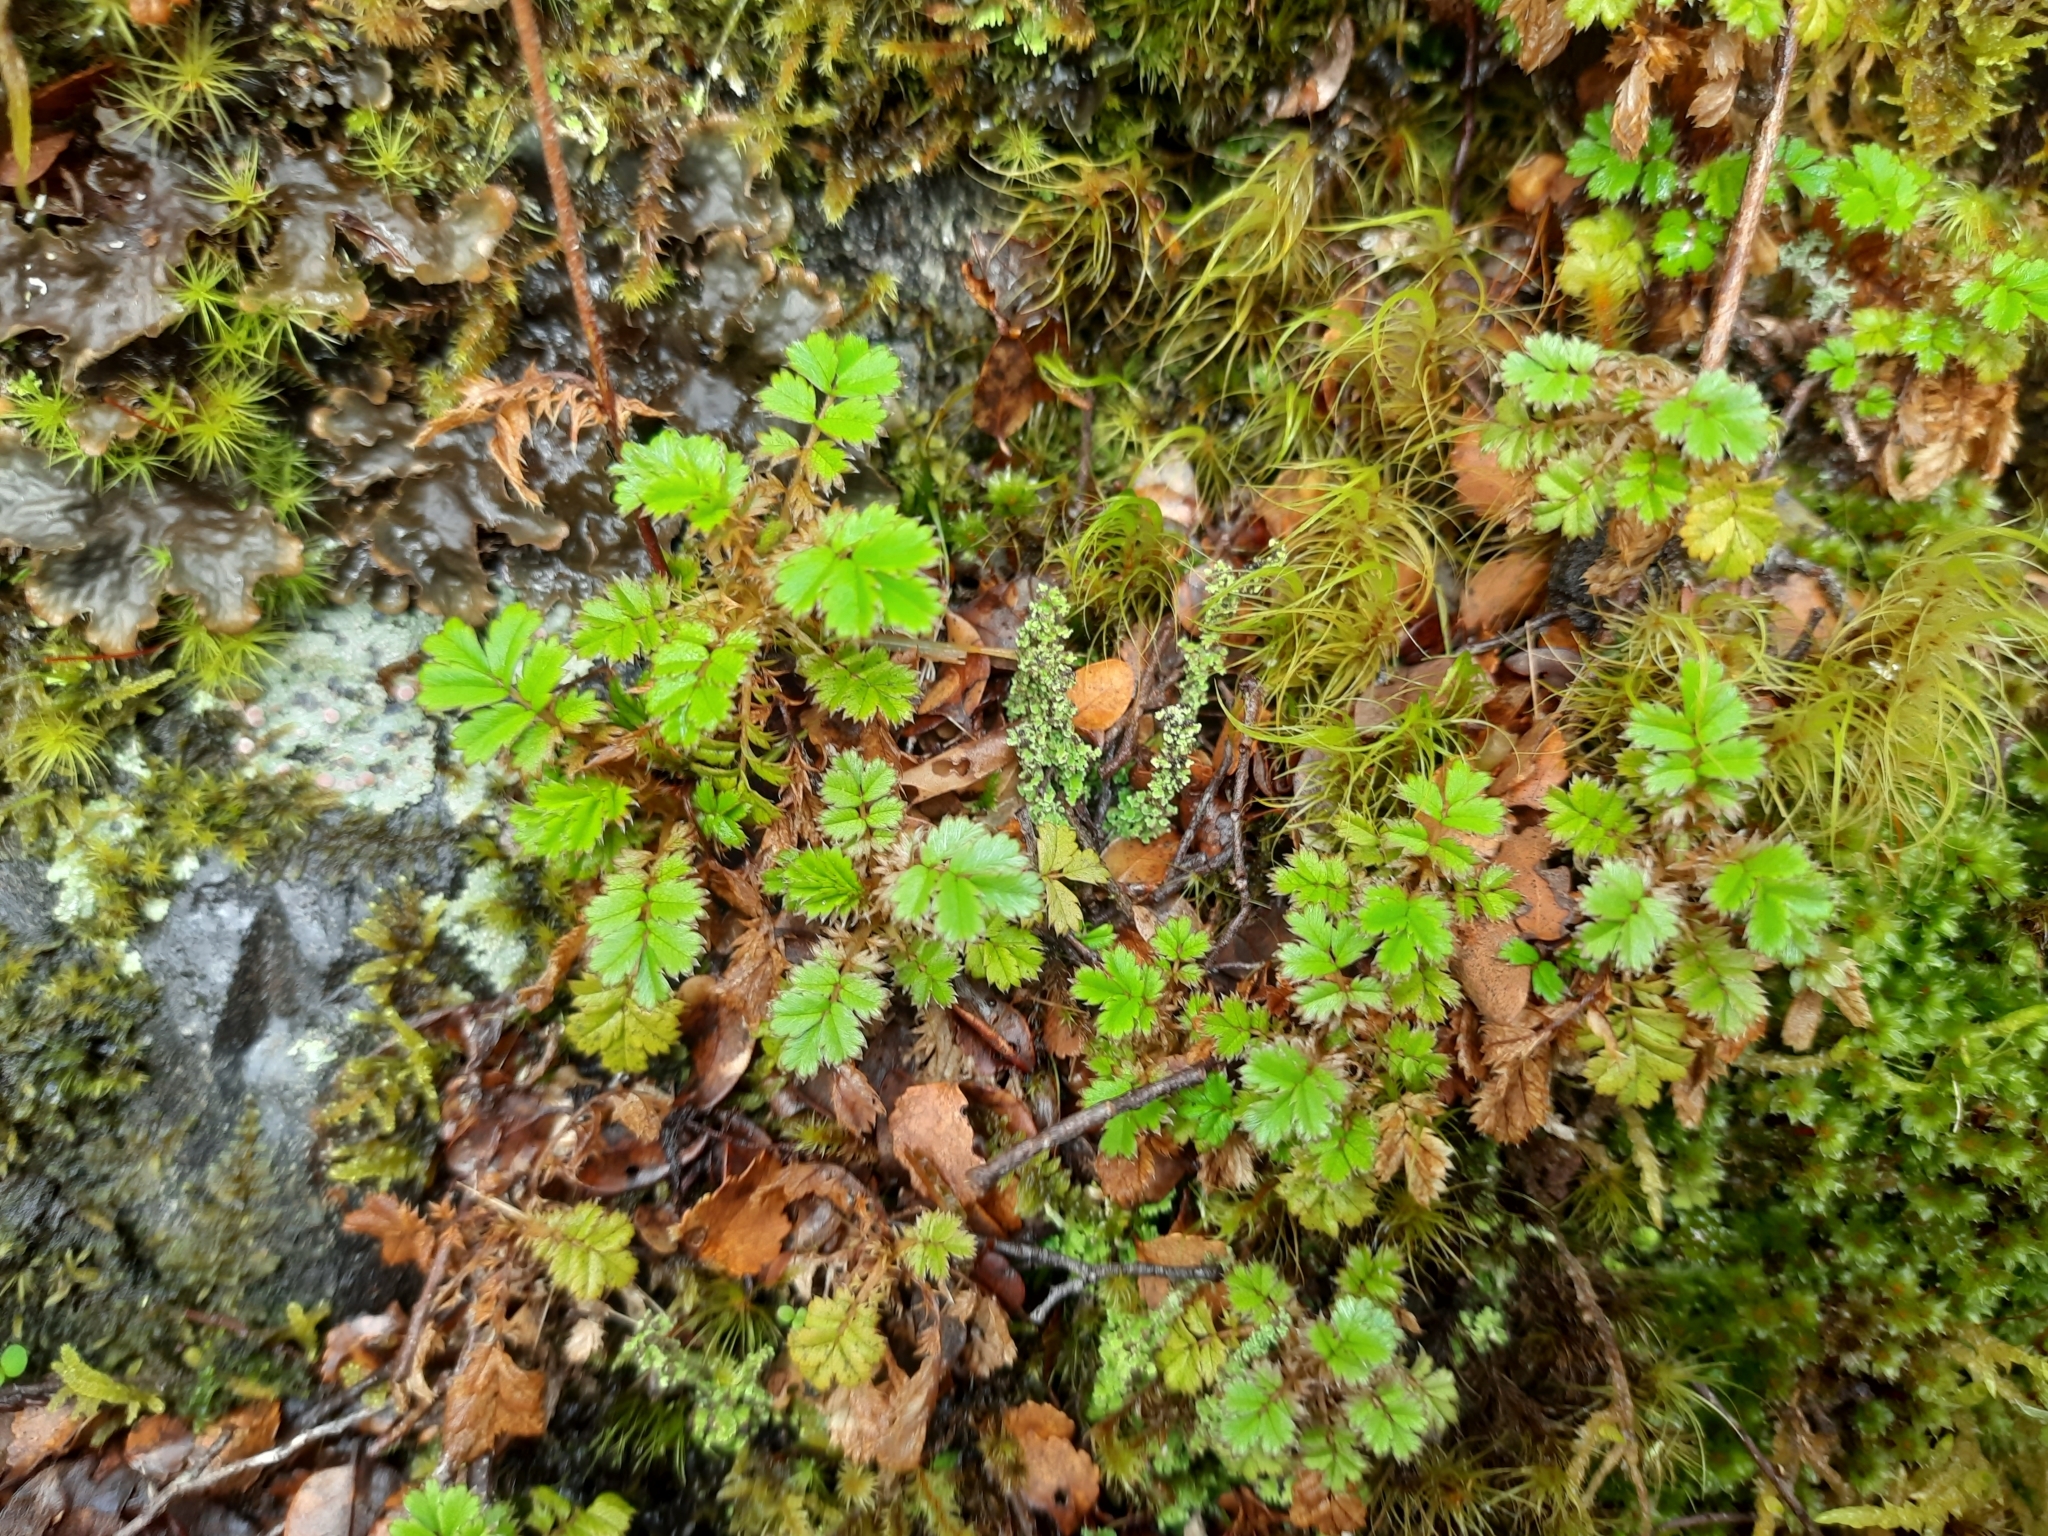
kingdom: Plantae
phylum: Tracheophyta
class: Magnoliopsida
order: Rosales
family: Rosaceae
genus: Acaena
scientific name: Acaena anserinifolia
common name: Bronze pirri-pirri-bur
